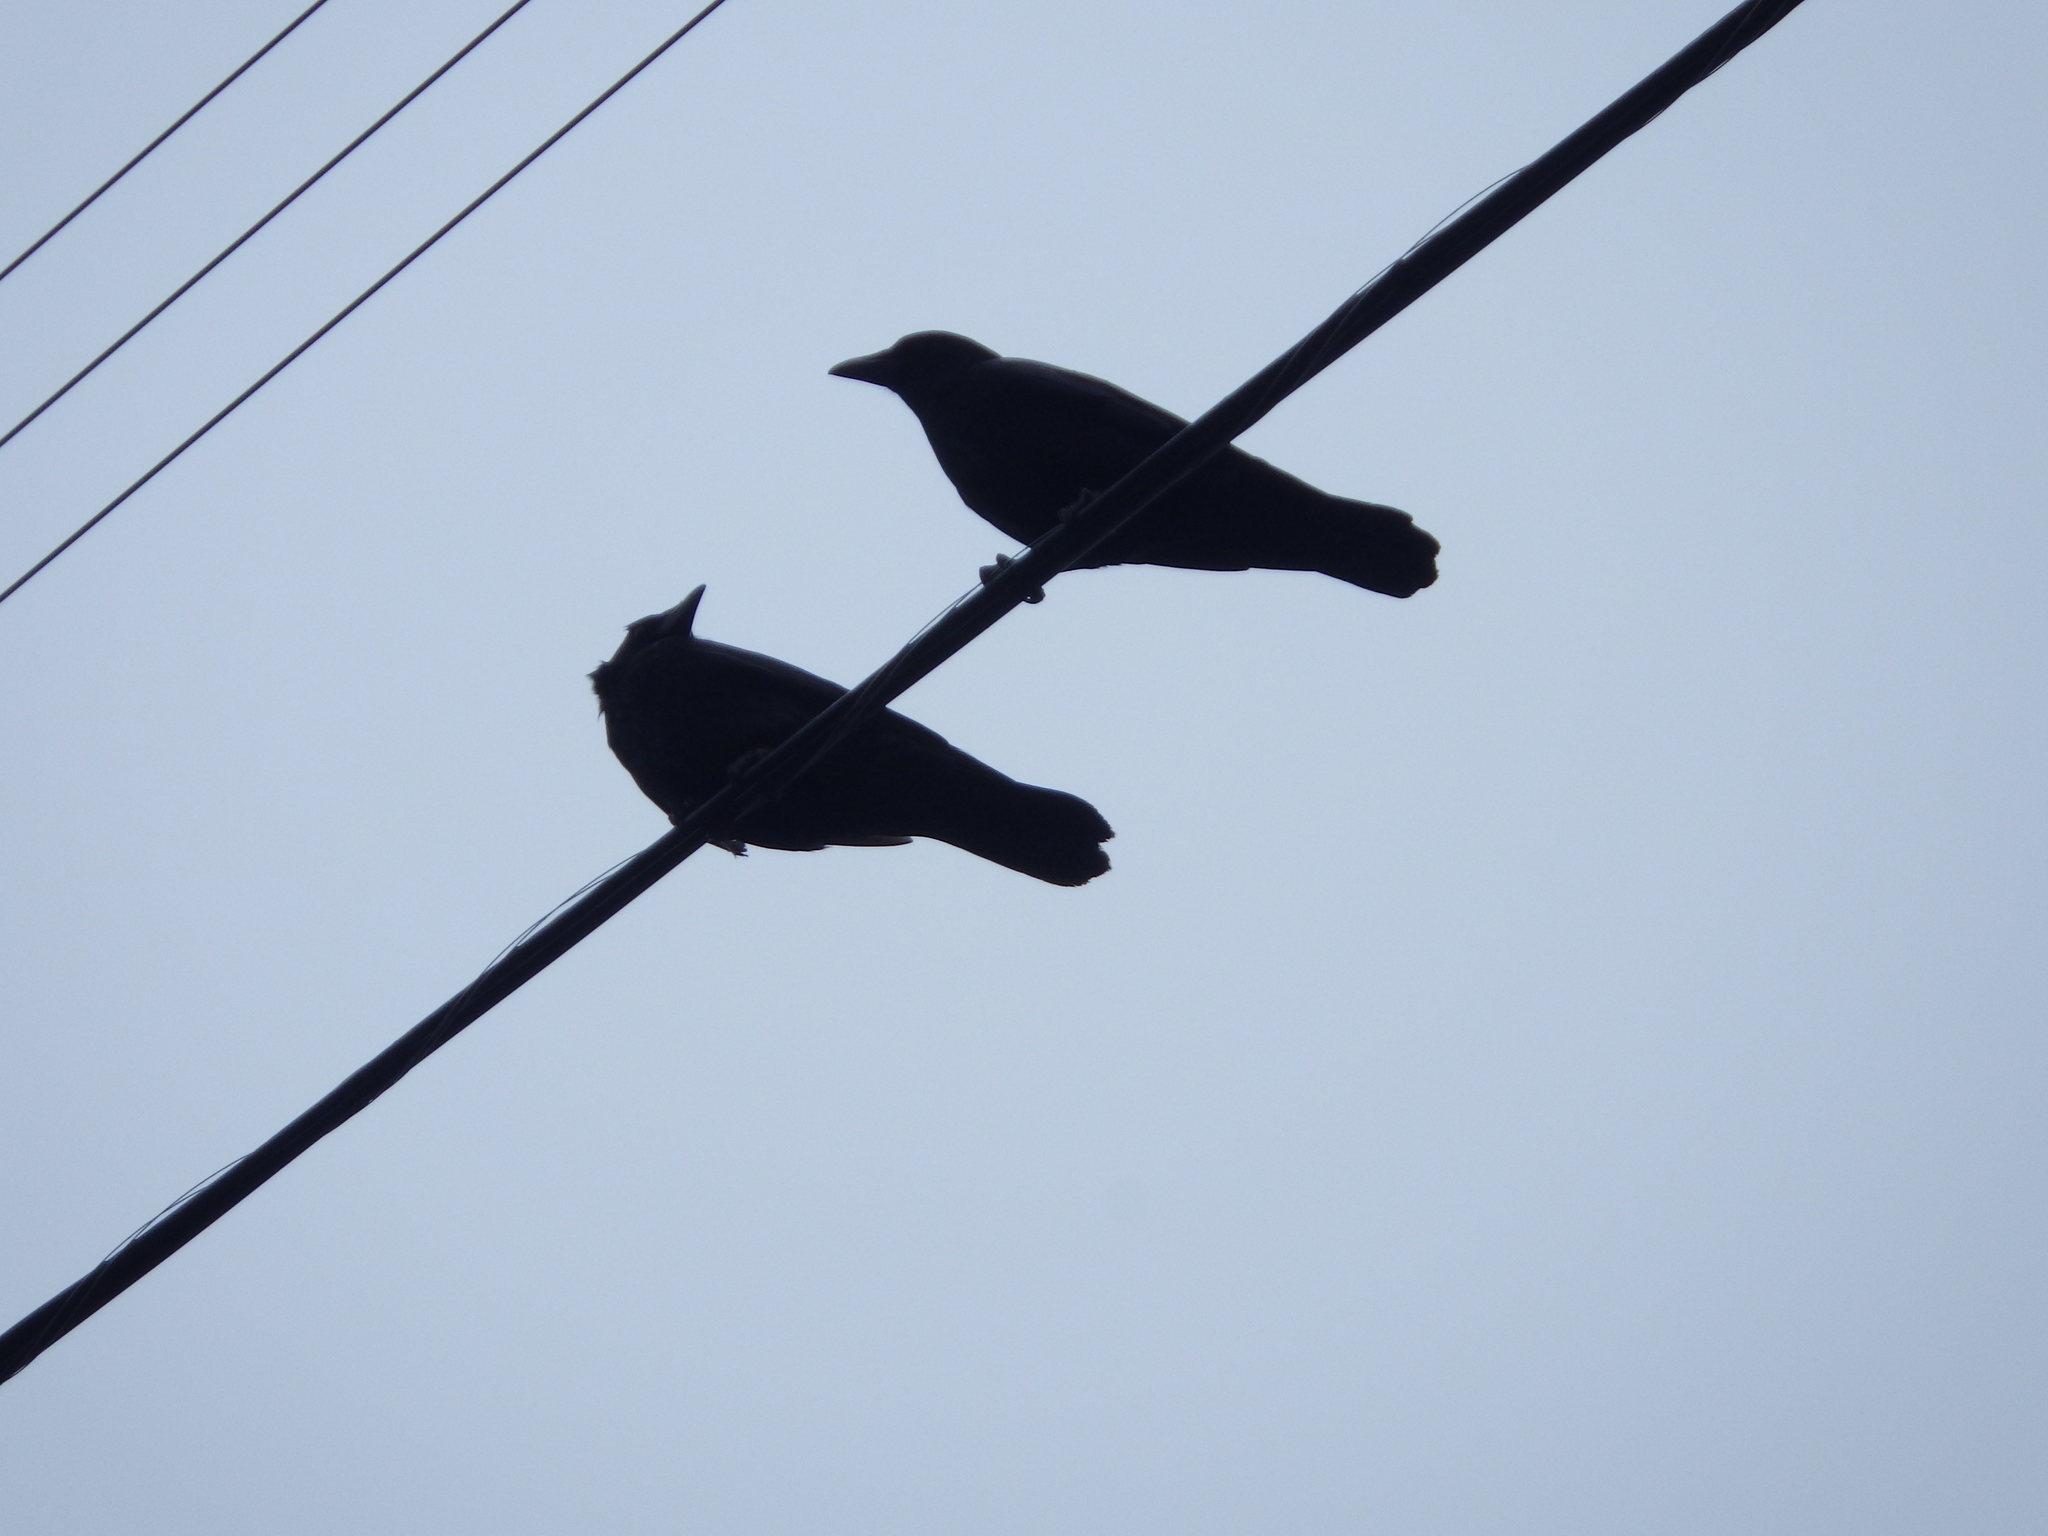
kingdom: Animalia
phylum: Chordata
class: Aves
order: Passeriformes
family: Corvidae
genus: Corvus
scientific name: Corvus brachyrhynchos
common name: American crow
